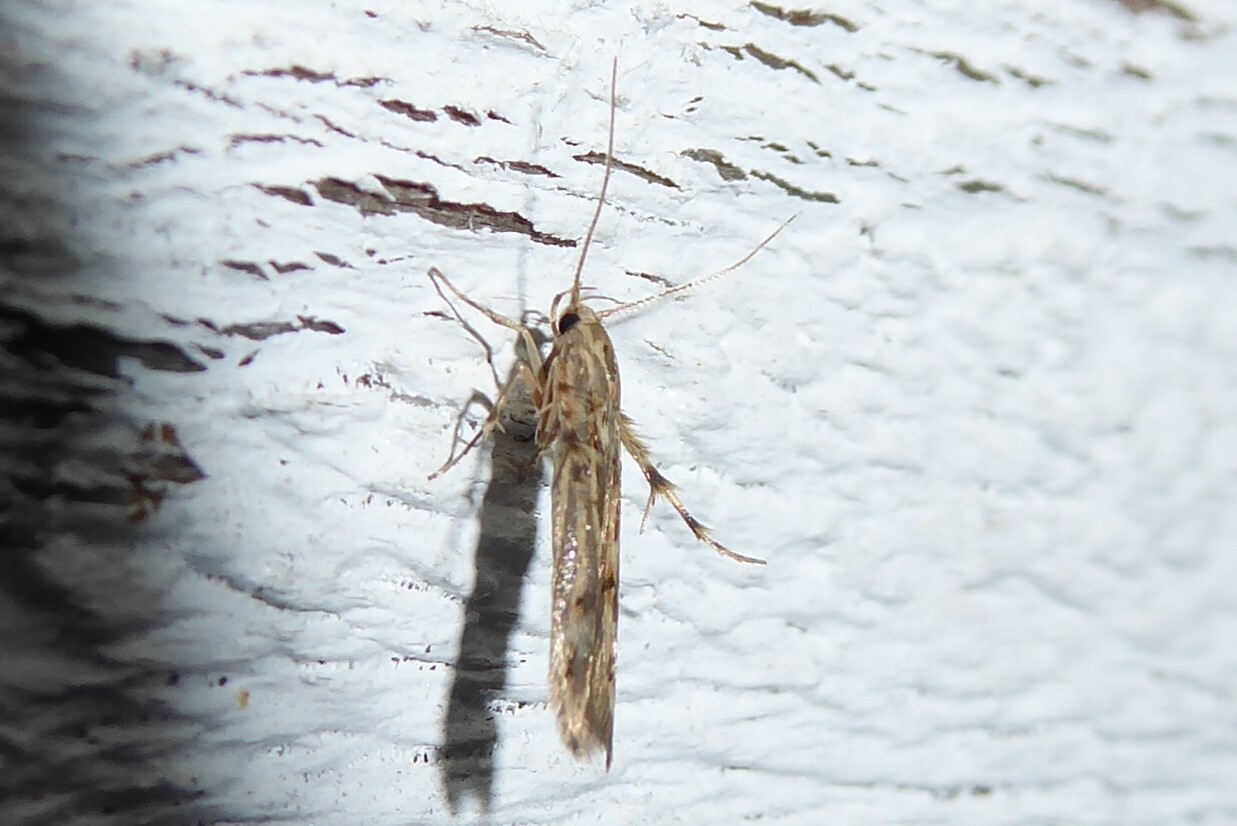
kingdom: Animalia
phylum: Arthropoda
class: Insecta
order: Lepidoptera
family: Stathmopodidae
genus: Stathmopoda
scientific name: Stathmopoda plumbiflua
